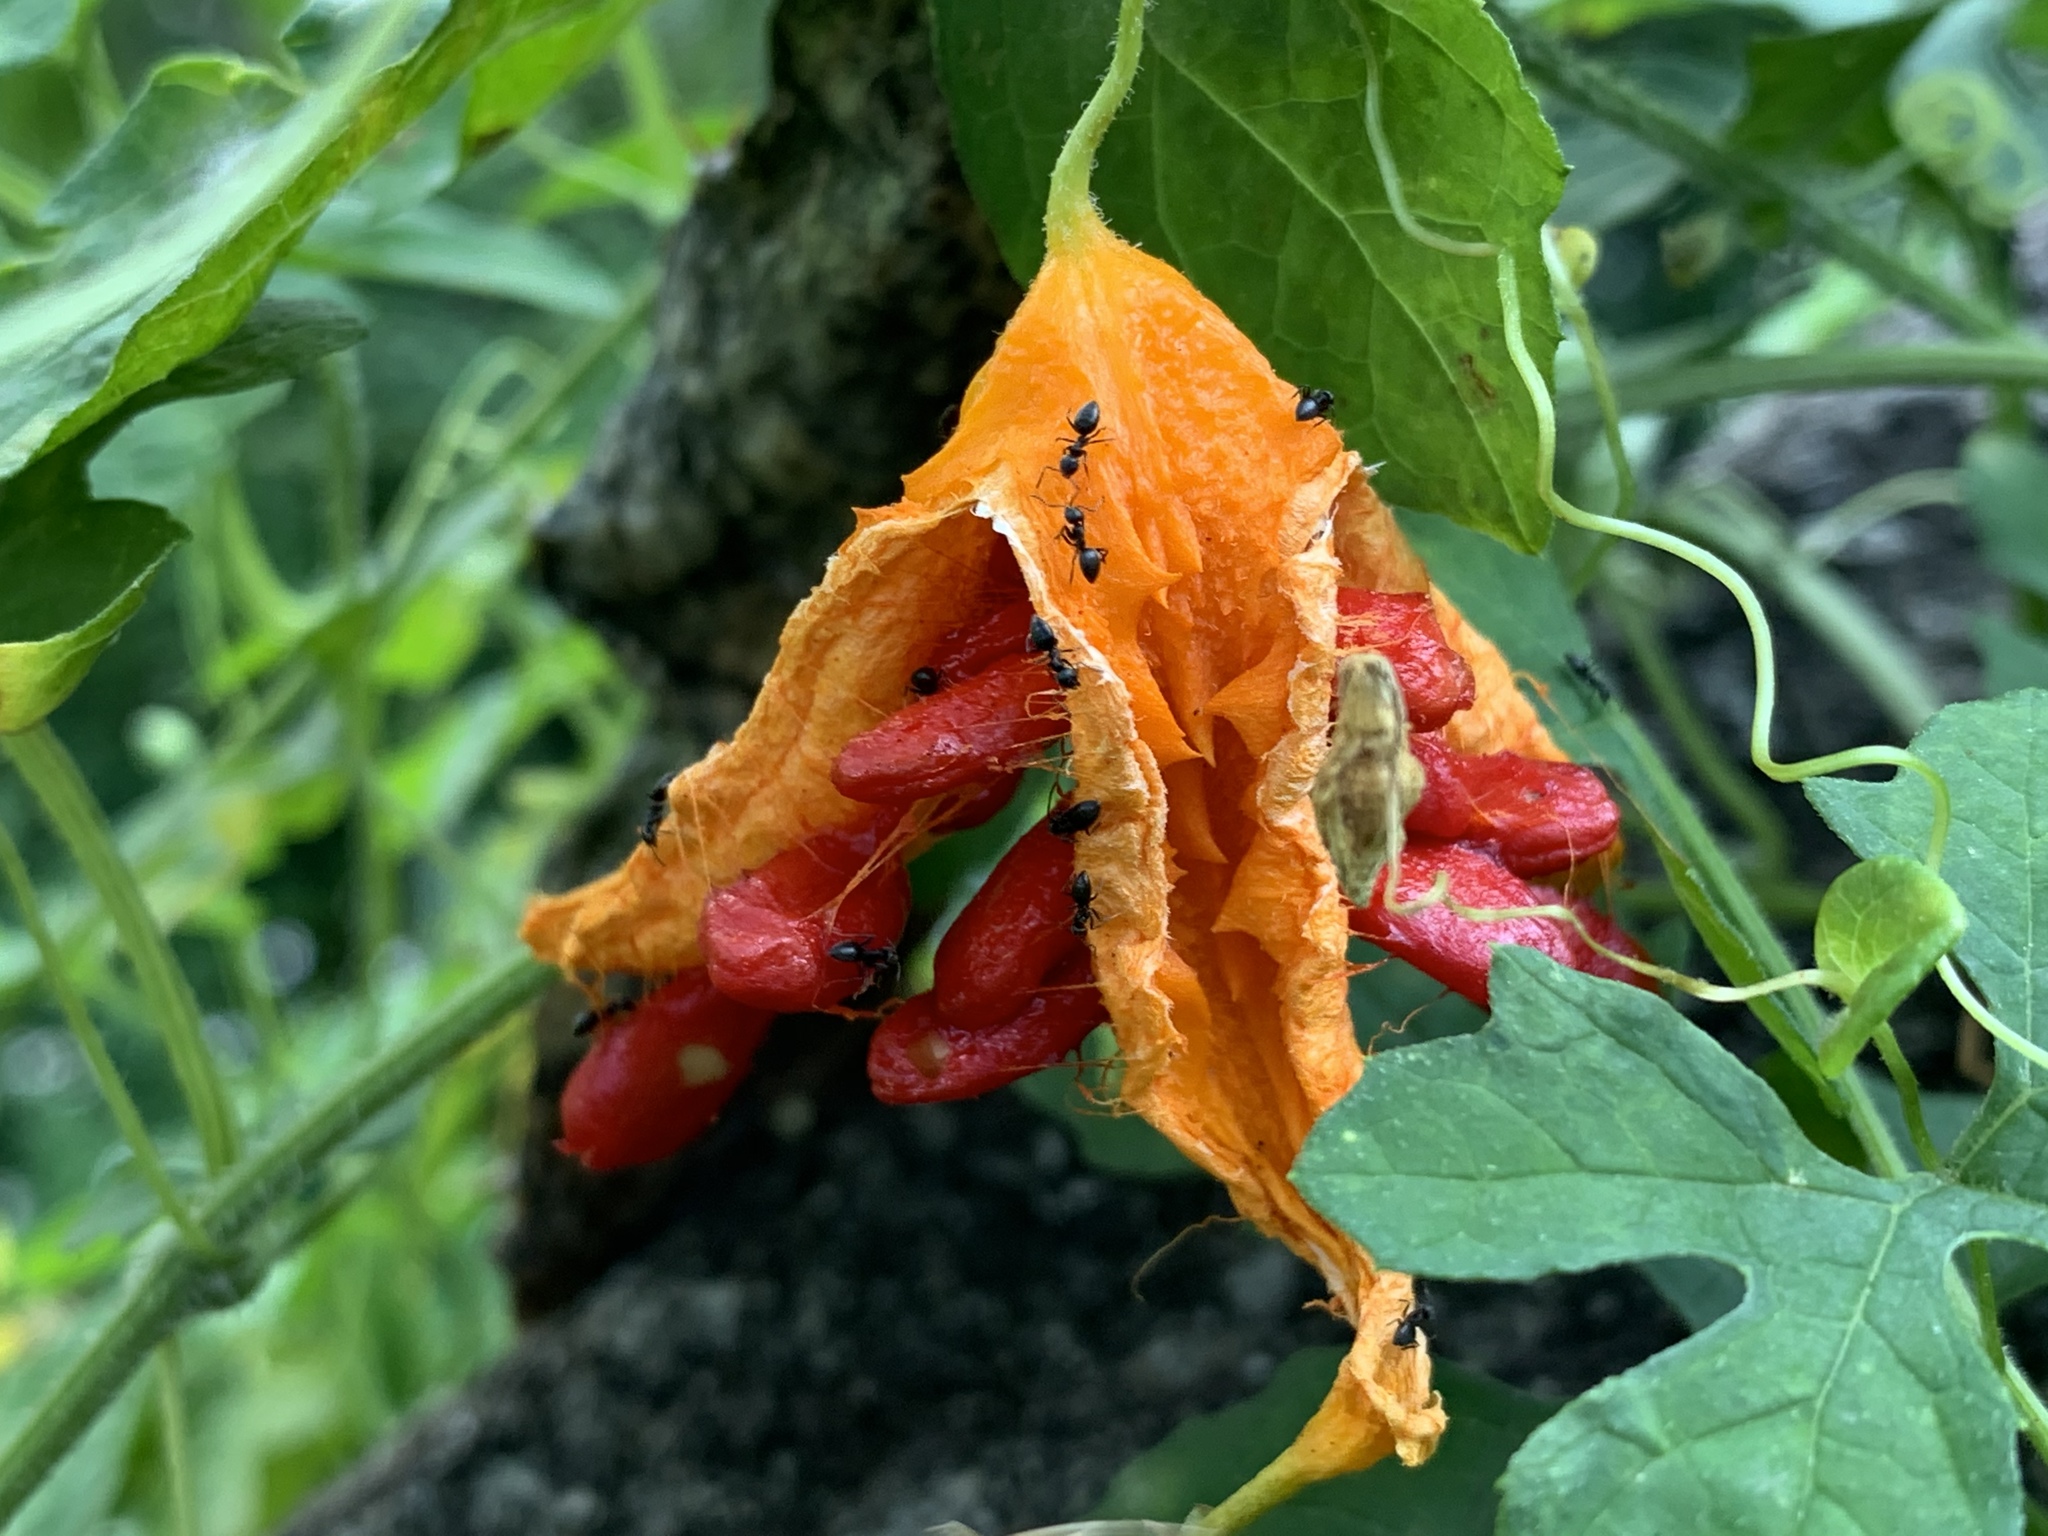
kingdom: Plantae
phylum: Tracheophyta
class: Magnoliopsida
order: Cucurbitales
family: Cucurbitaceae
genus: Momordica
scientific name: Momordica charantia
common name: Balsampear
